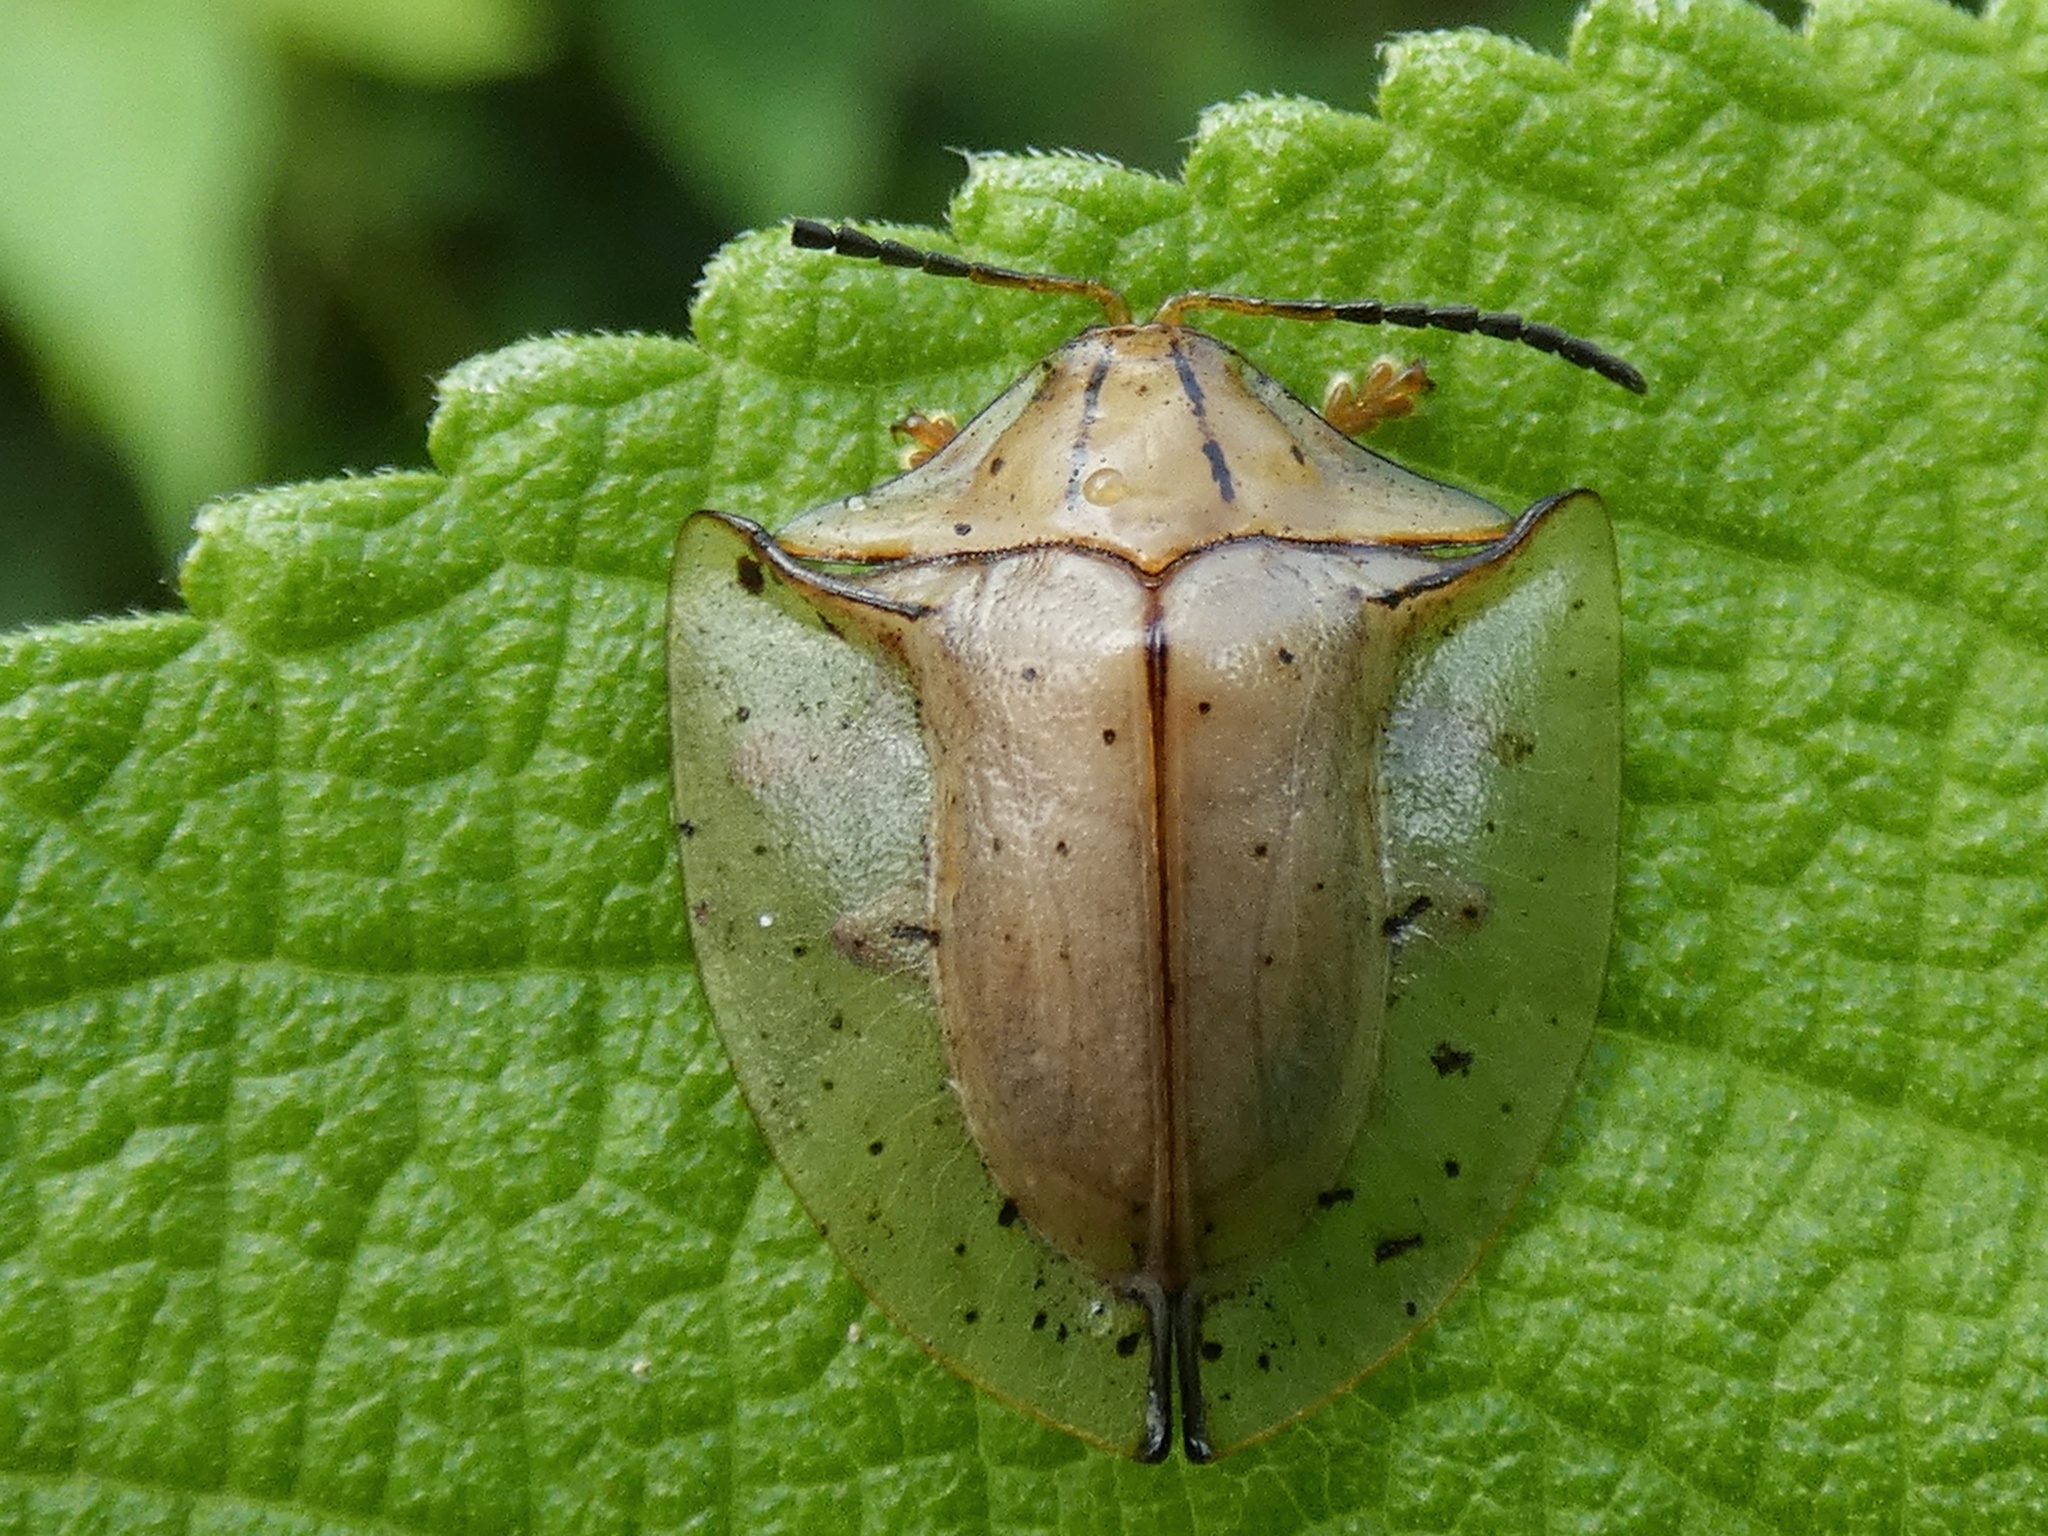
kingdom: Animalia
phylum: Arthropoda
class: Insecta
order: Coleoptera
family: Chrysomelidae
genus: Acromis
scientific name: Acromis sparsa
